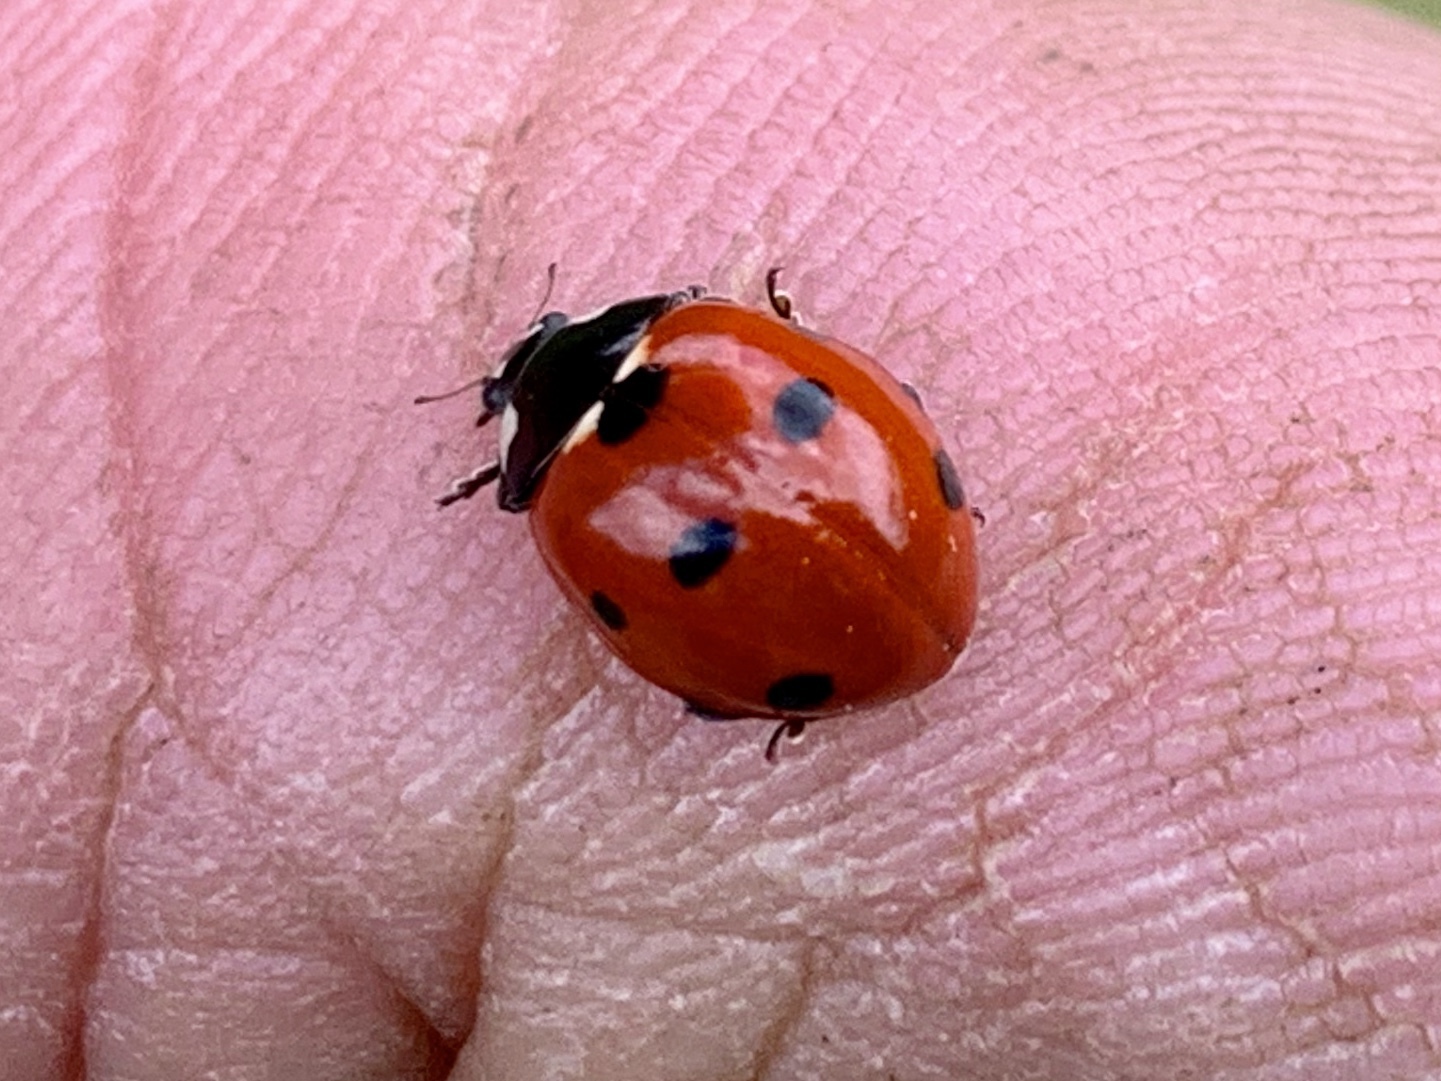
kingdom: Animalia
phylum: Arthropoda
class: Insecta
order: Coleoptera
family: Coccinellidae
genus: Coccinella
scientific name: Coccinella septempunctata
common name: Sevenspotted lady beetle
